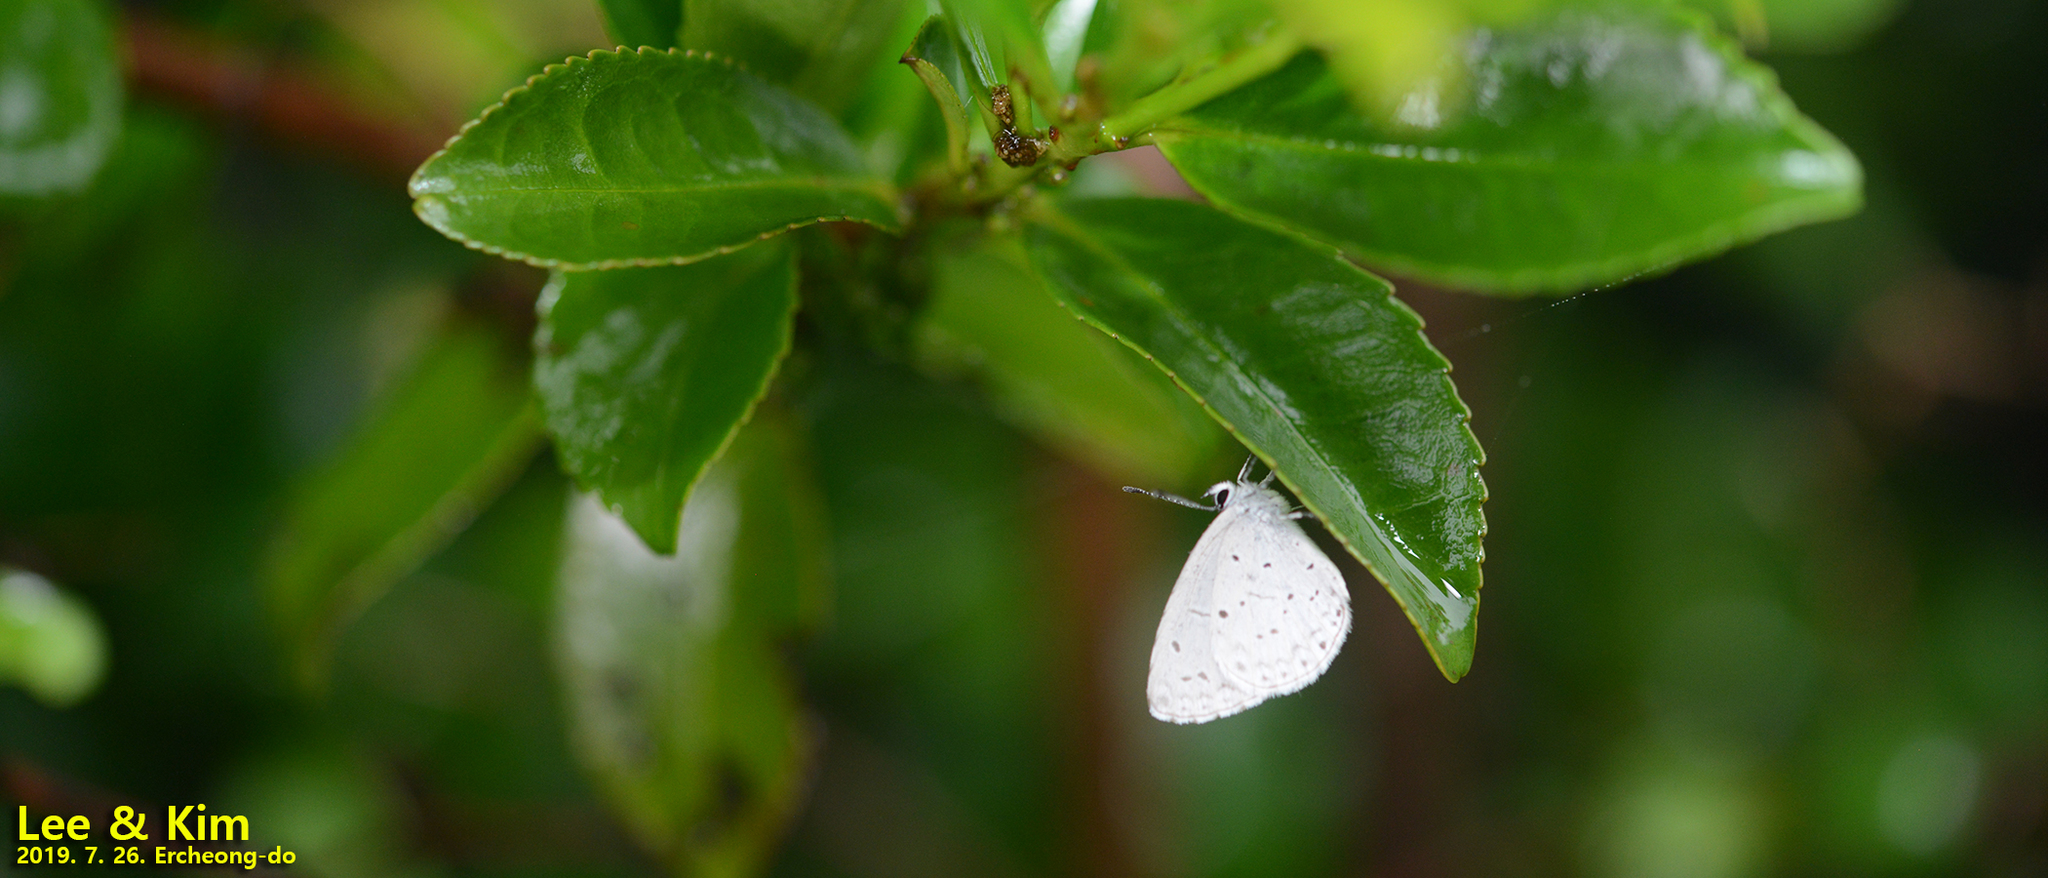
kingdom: Animalia
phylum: Arthropoda
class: Insecta
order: Lepidoptera
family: Lycaenidae
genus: Celastrina
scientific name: Celastrina argiolus
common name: Holly blue
